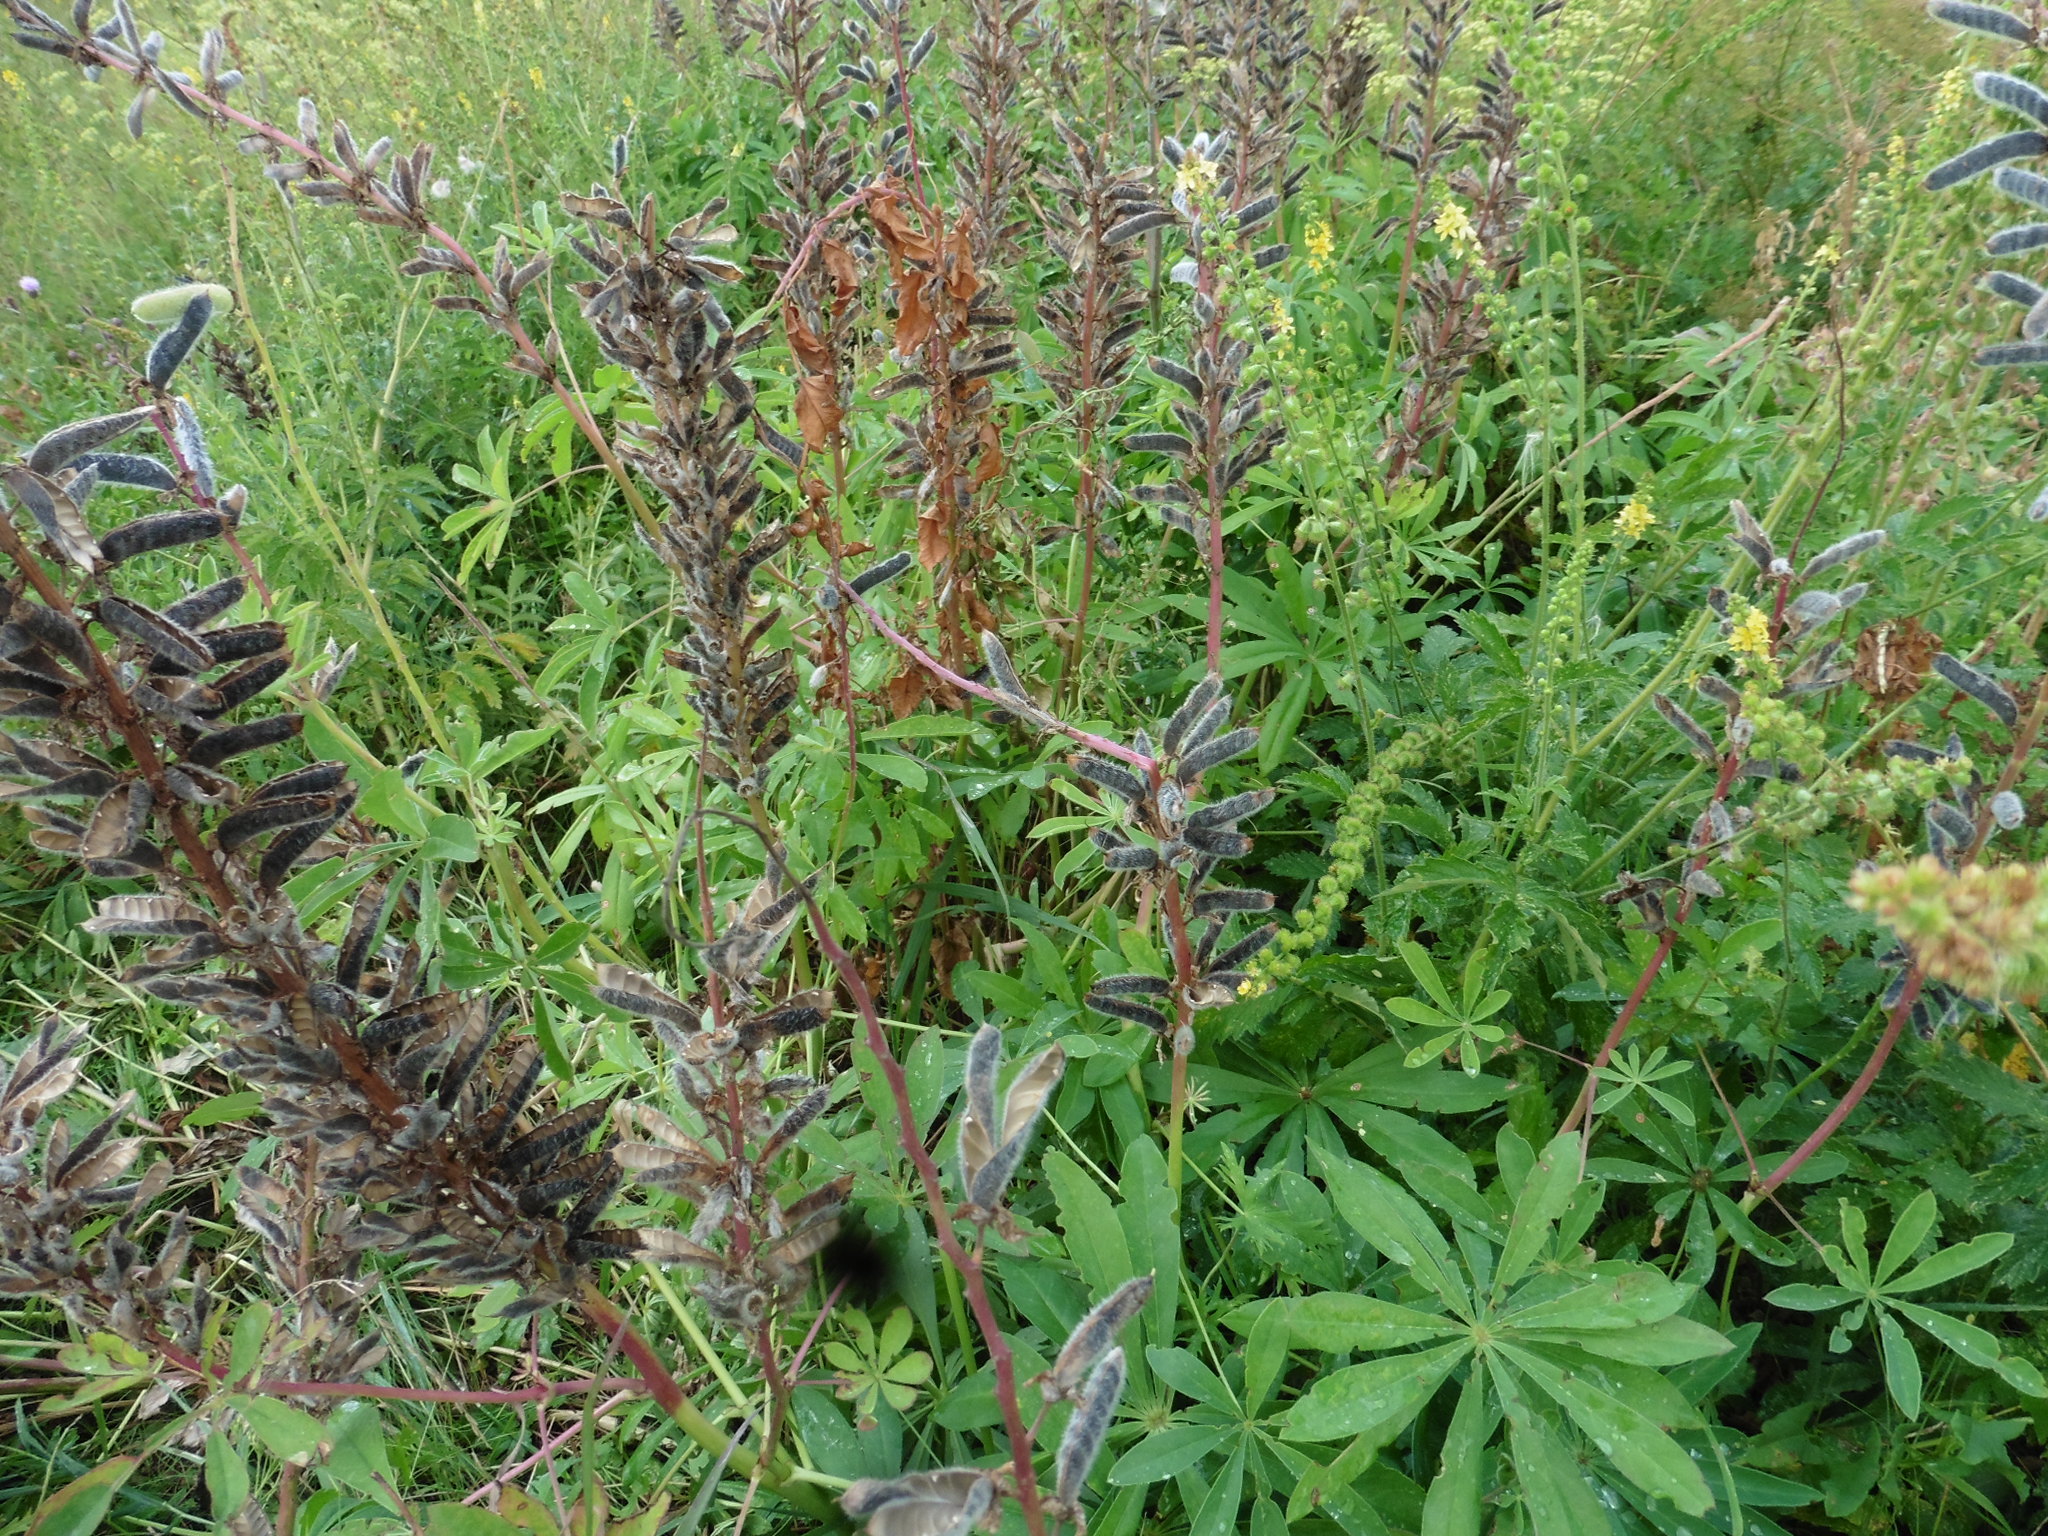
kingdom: Plantae
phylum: Tracheophyta
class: Magnoliopsida
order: Fabales
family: Fabaceae
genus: Lupinus
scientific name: Lupinus polyphyllus
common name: Garden lupin
